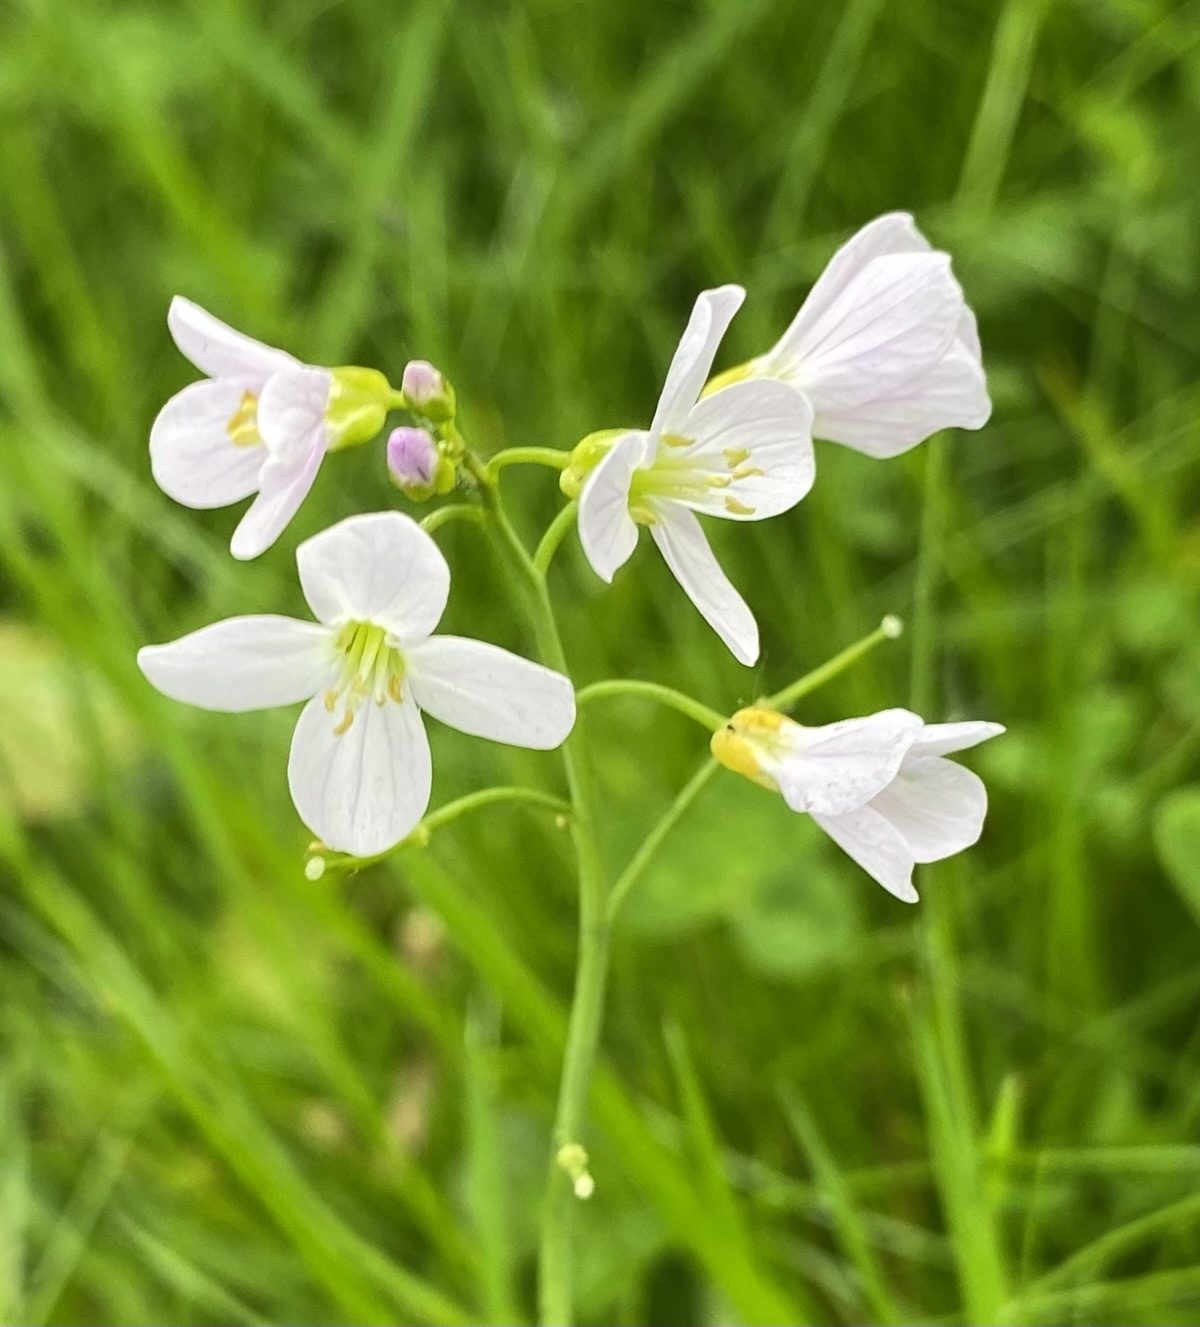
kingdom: Plantae
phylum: Tracheophyta
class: Magnoliopsida
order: Brassicales
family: Brassicaceae
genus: Cardamine
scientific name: Cardamine pratensis
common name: Cuckoo flower
